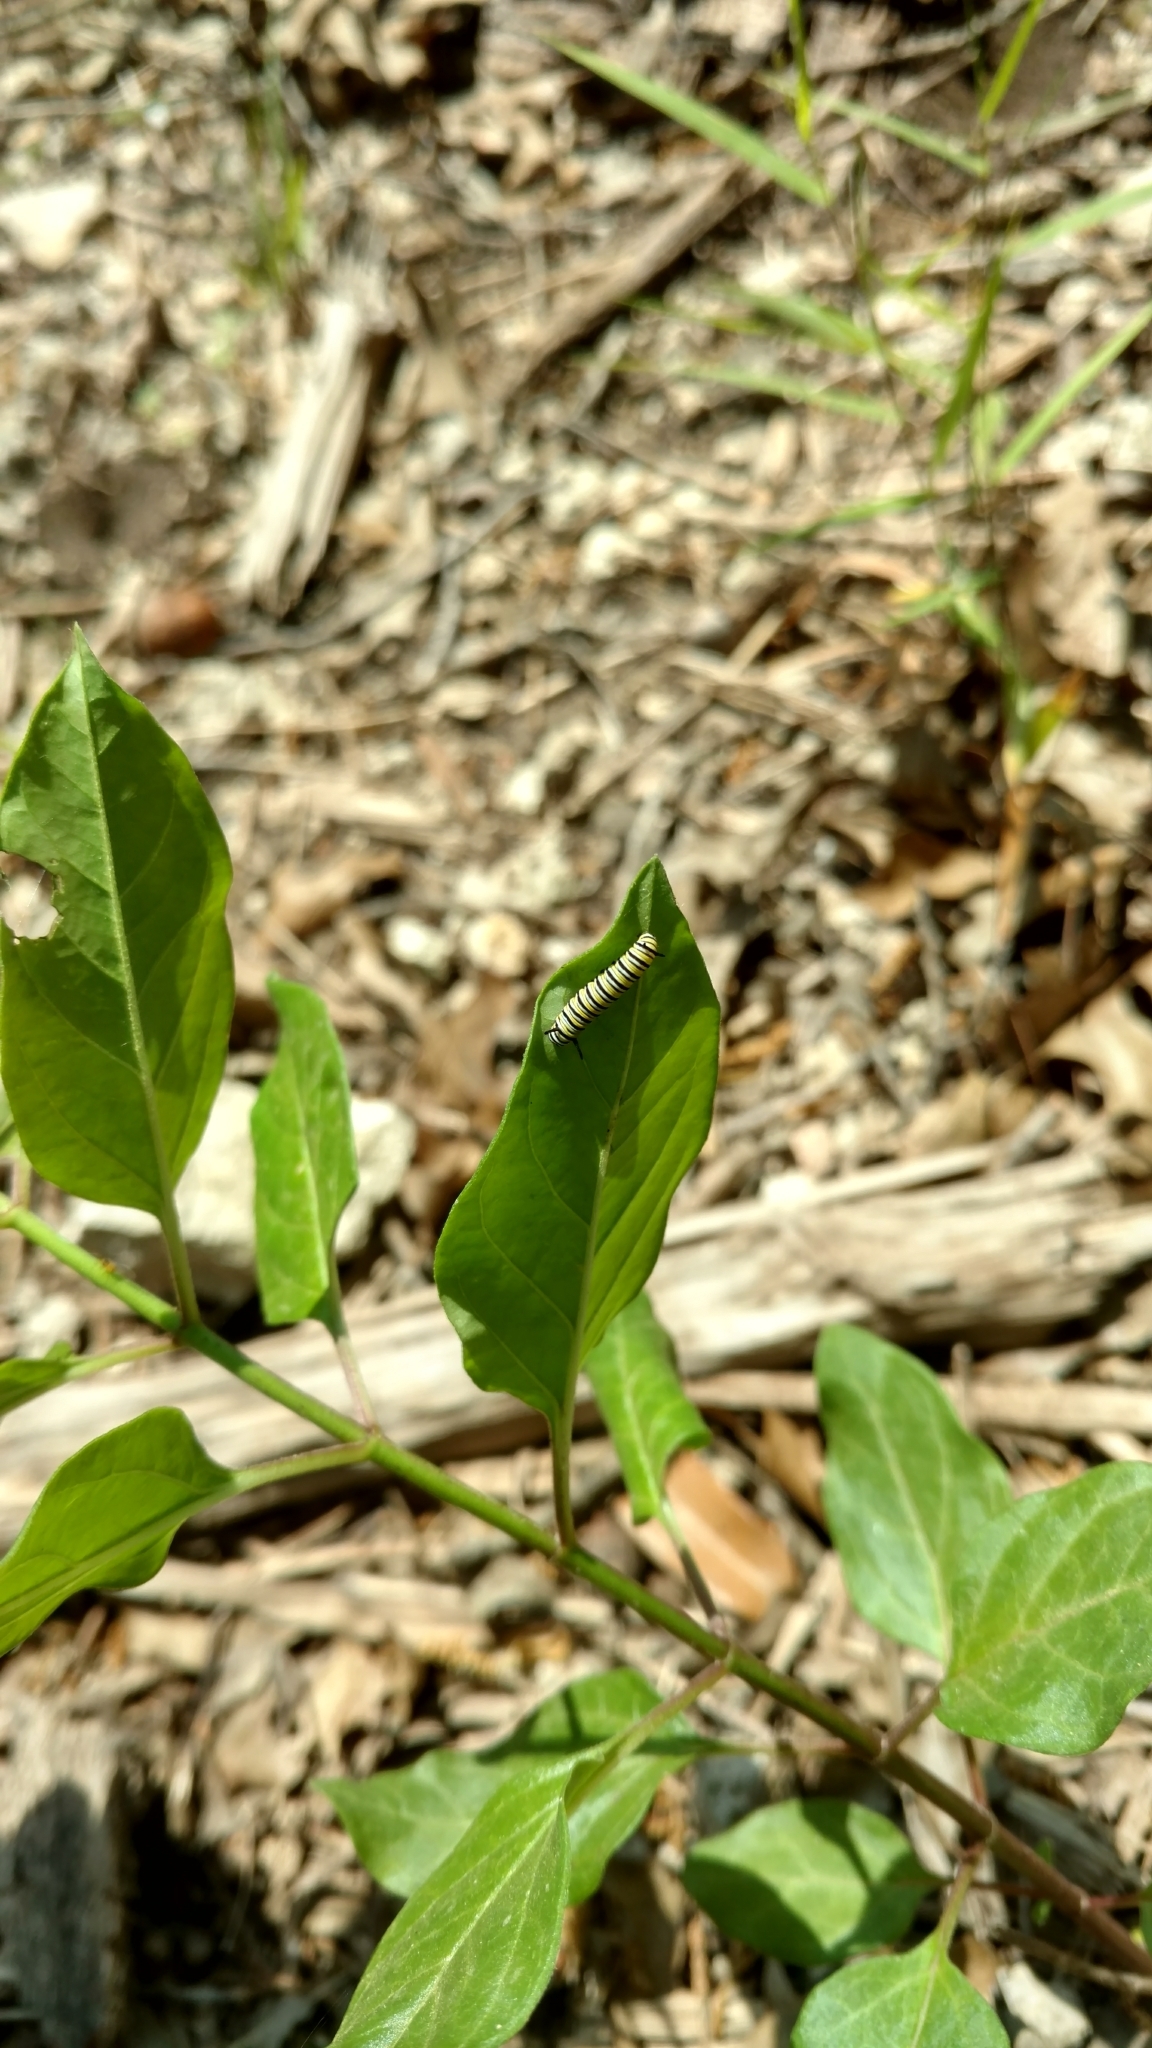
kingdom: Animalia
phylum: Arthropoda
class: Insecta
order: Lepidoptera
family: Nymphalidae
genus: Danaus
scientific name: Danaus plexippus
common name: Monarch
